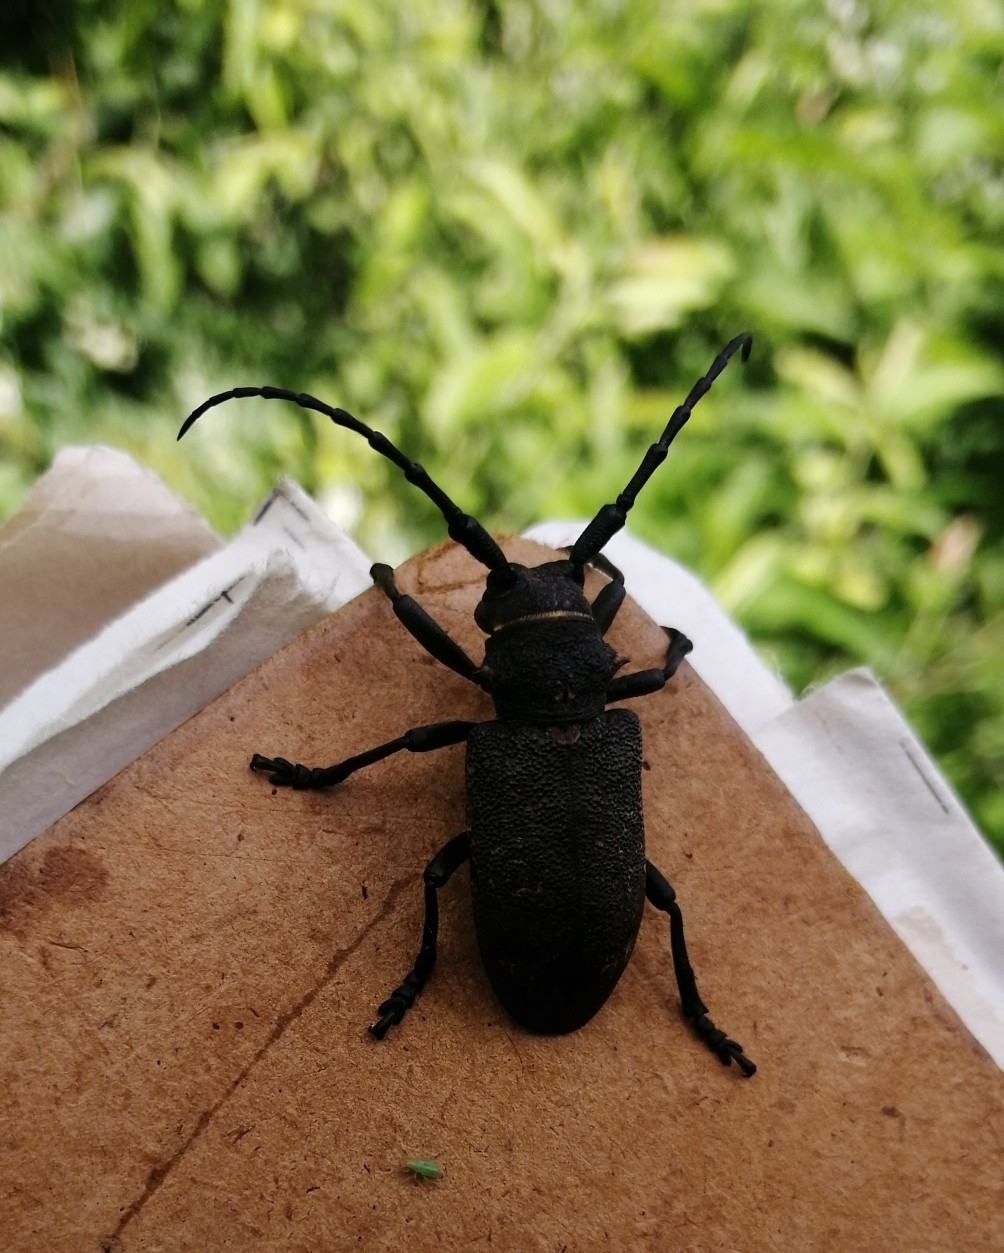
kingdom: Animalia
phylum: Arthropoda
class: Insecta
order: Coleoptera
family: Cerambycidae
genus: Lamia
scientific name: Lamia textor
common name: Weaver beetle
